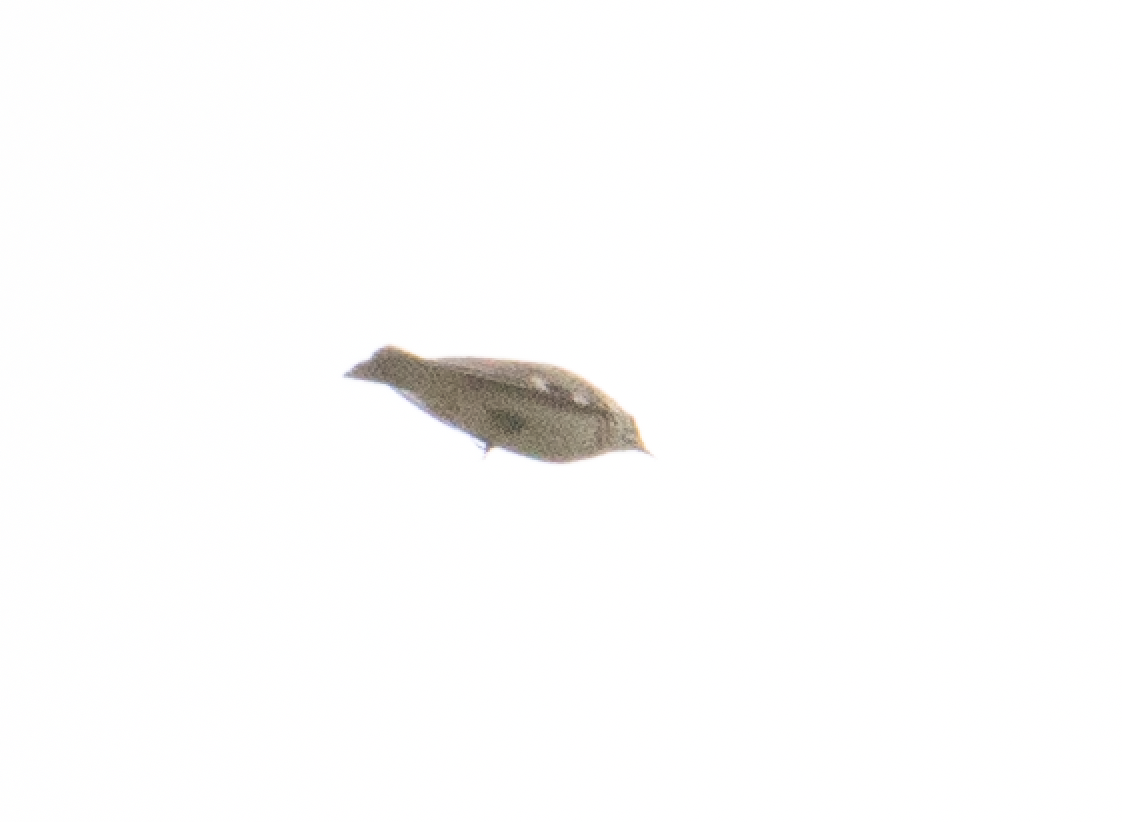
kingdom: Animalia
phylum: Chordata
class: Aves
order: Passeriformes
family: Alaudidae
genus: Lullula
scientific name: Lullula arborea
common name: Woodlark
